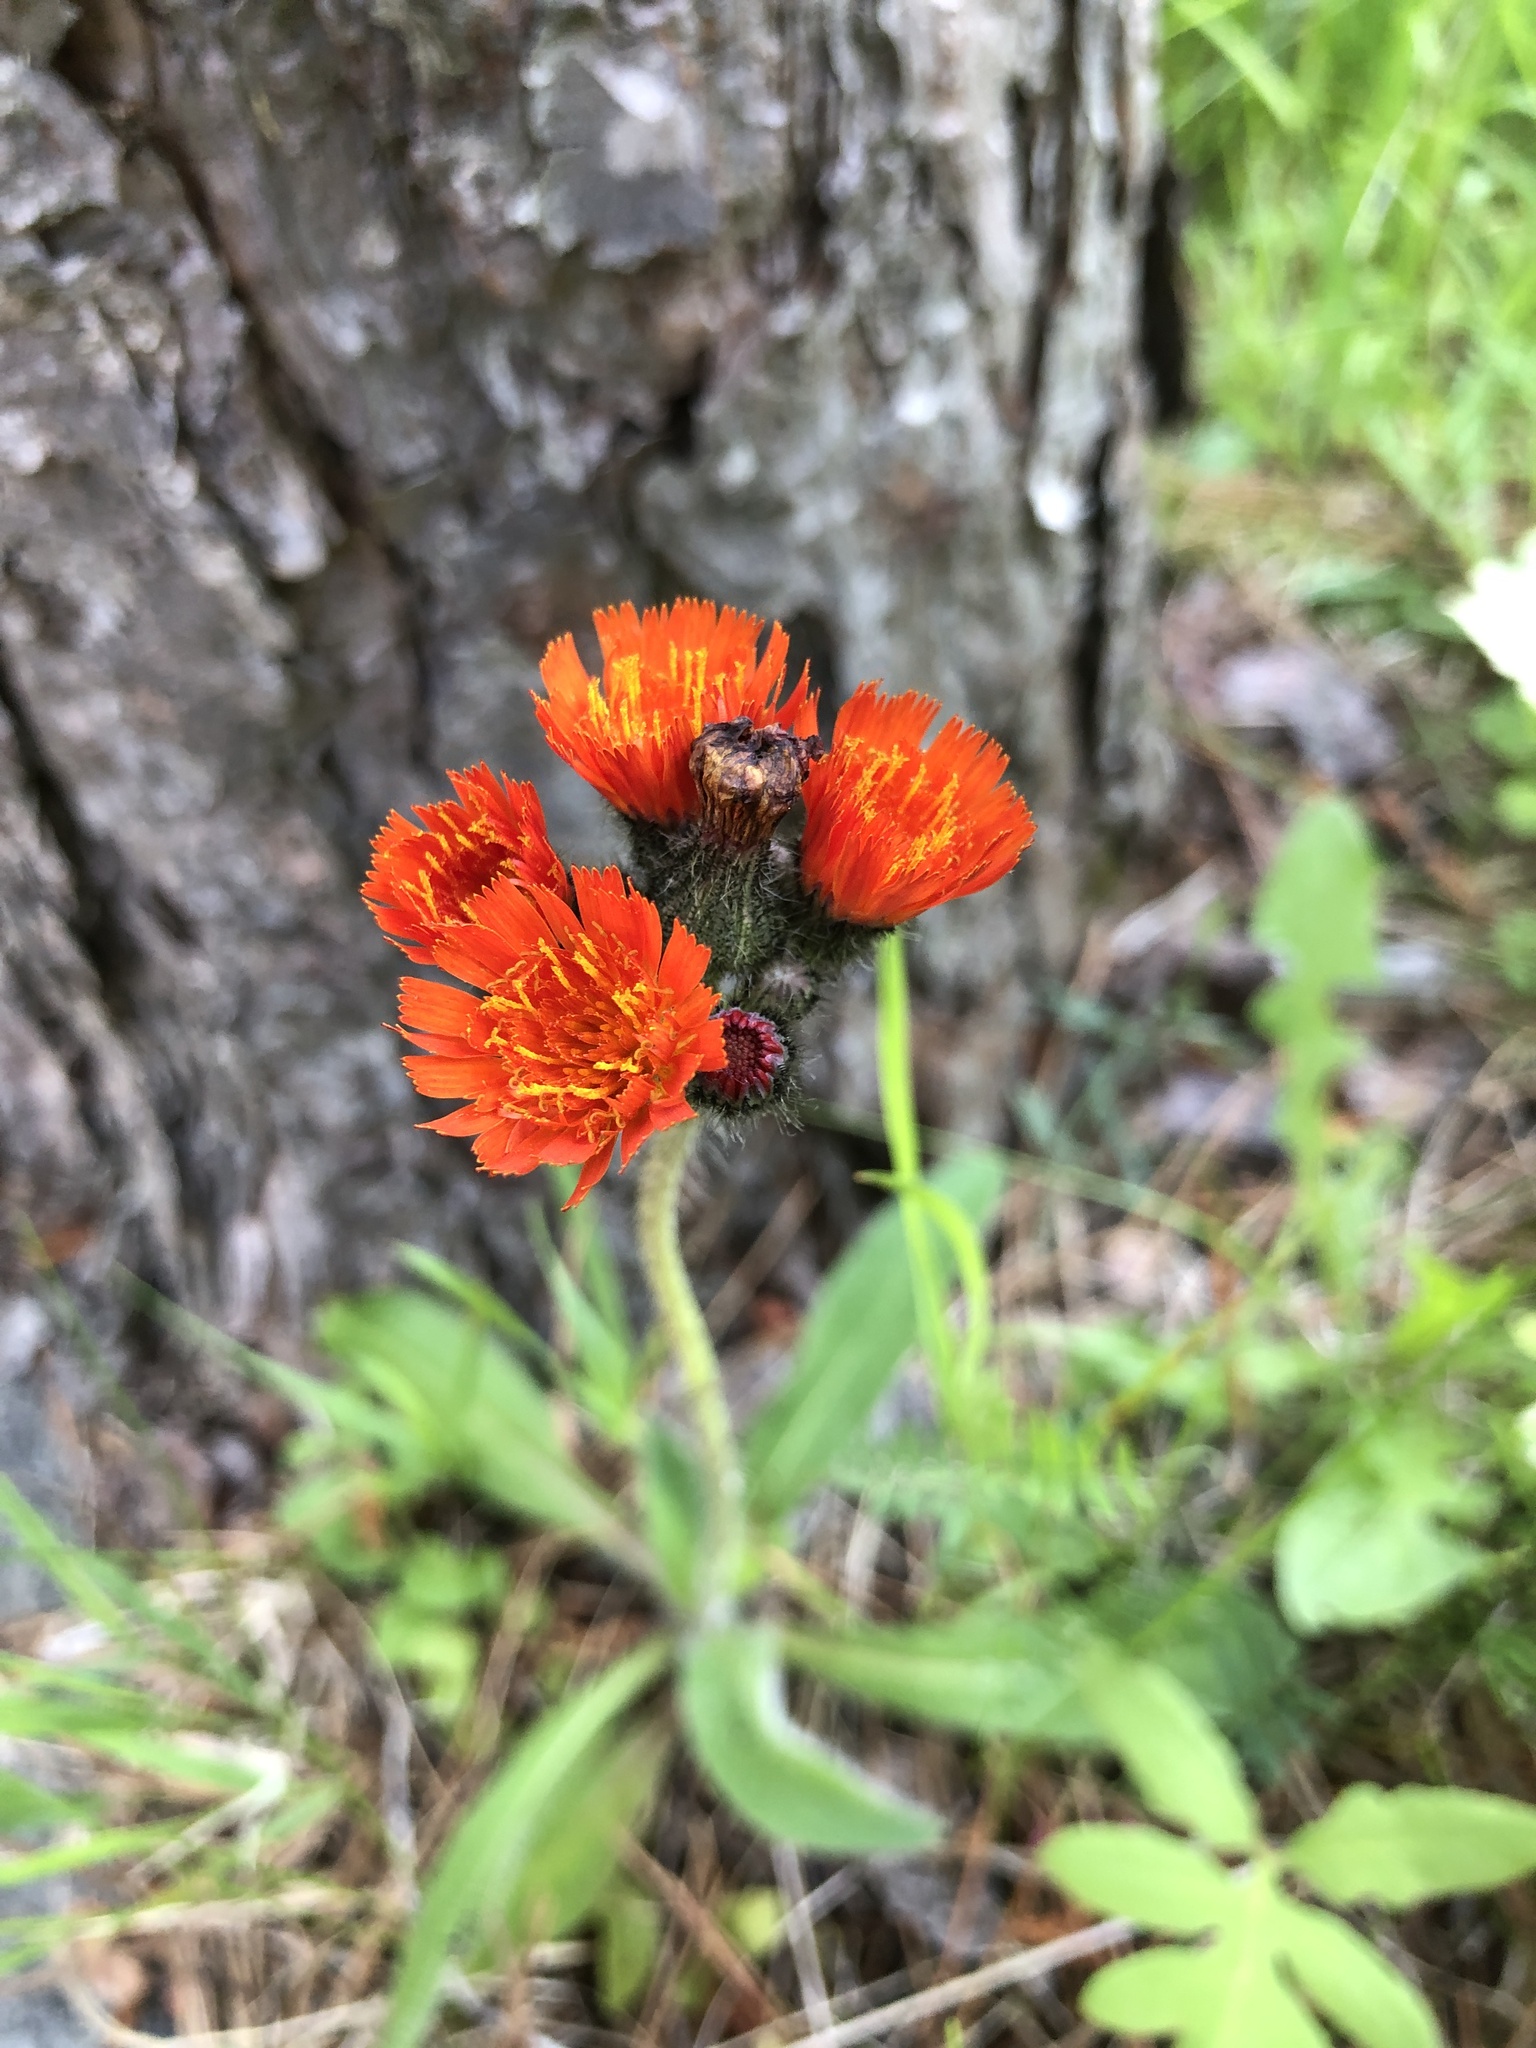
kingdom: Plantae
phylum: Tracheophyta
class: Magnoliopsida
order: Asterales
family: Asteraceae
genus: Pilosella
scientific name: Pilosella aurantiaca
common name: Fox-and-cubs
